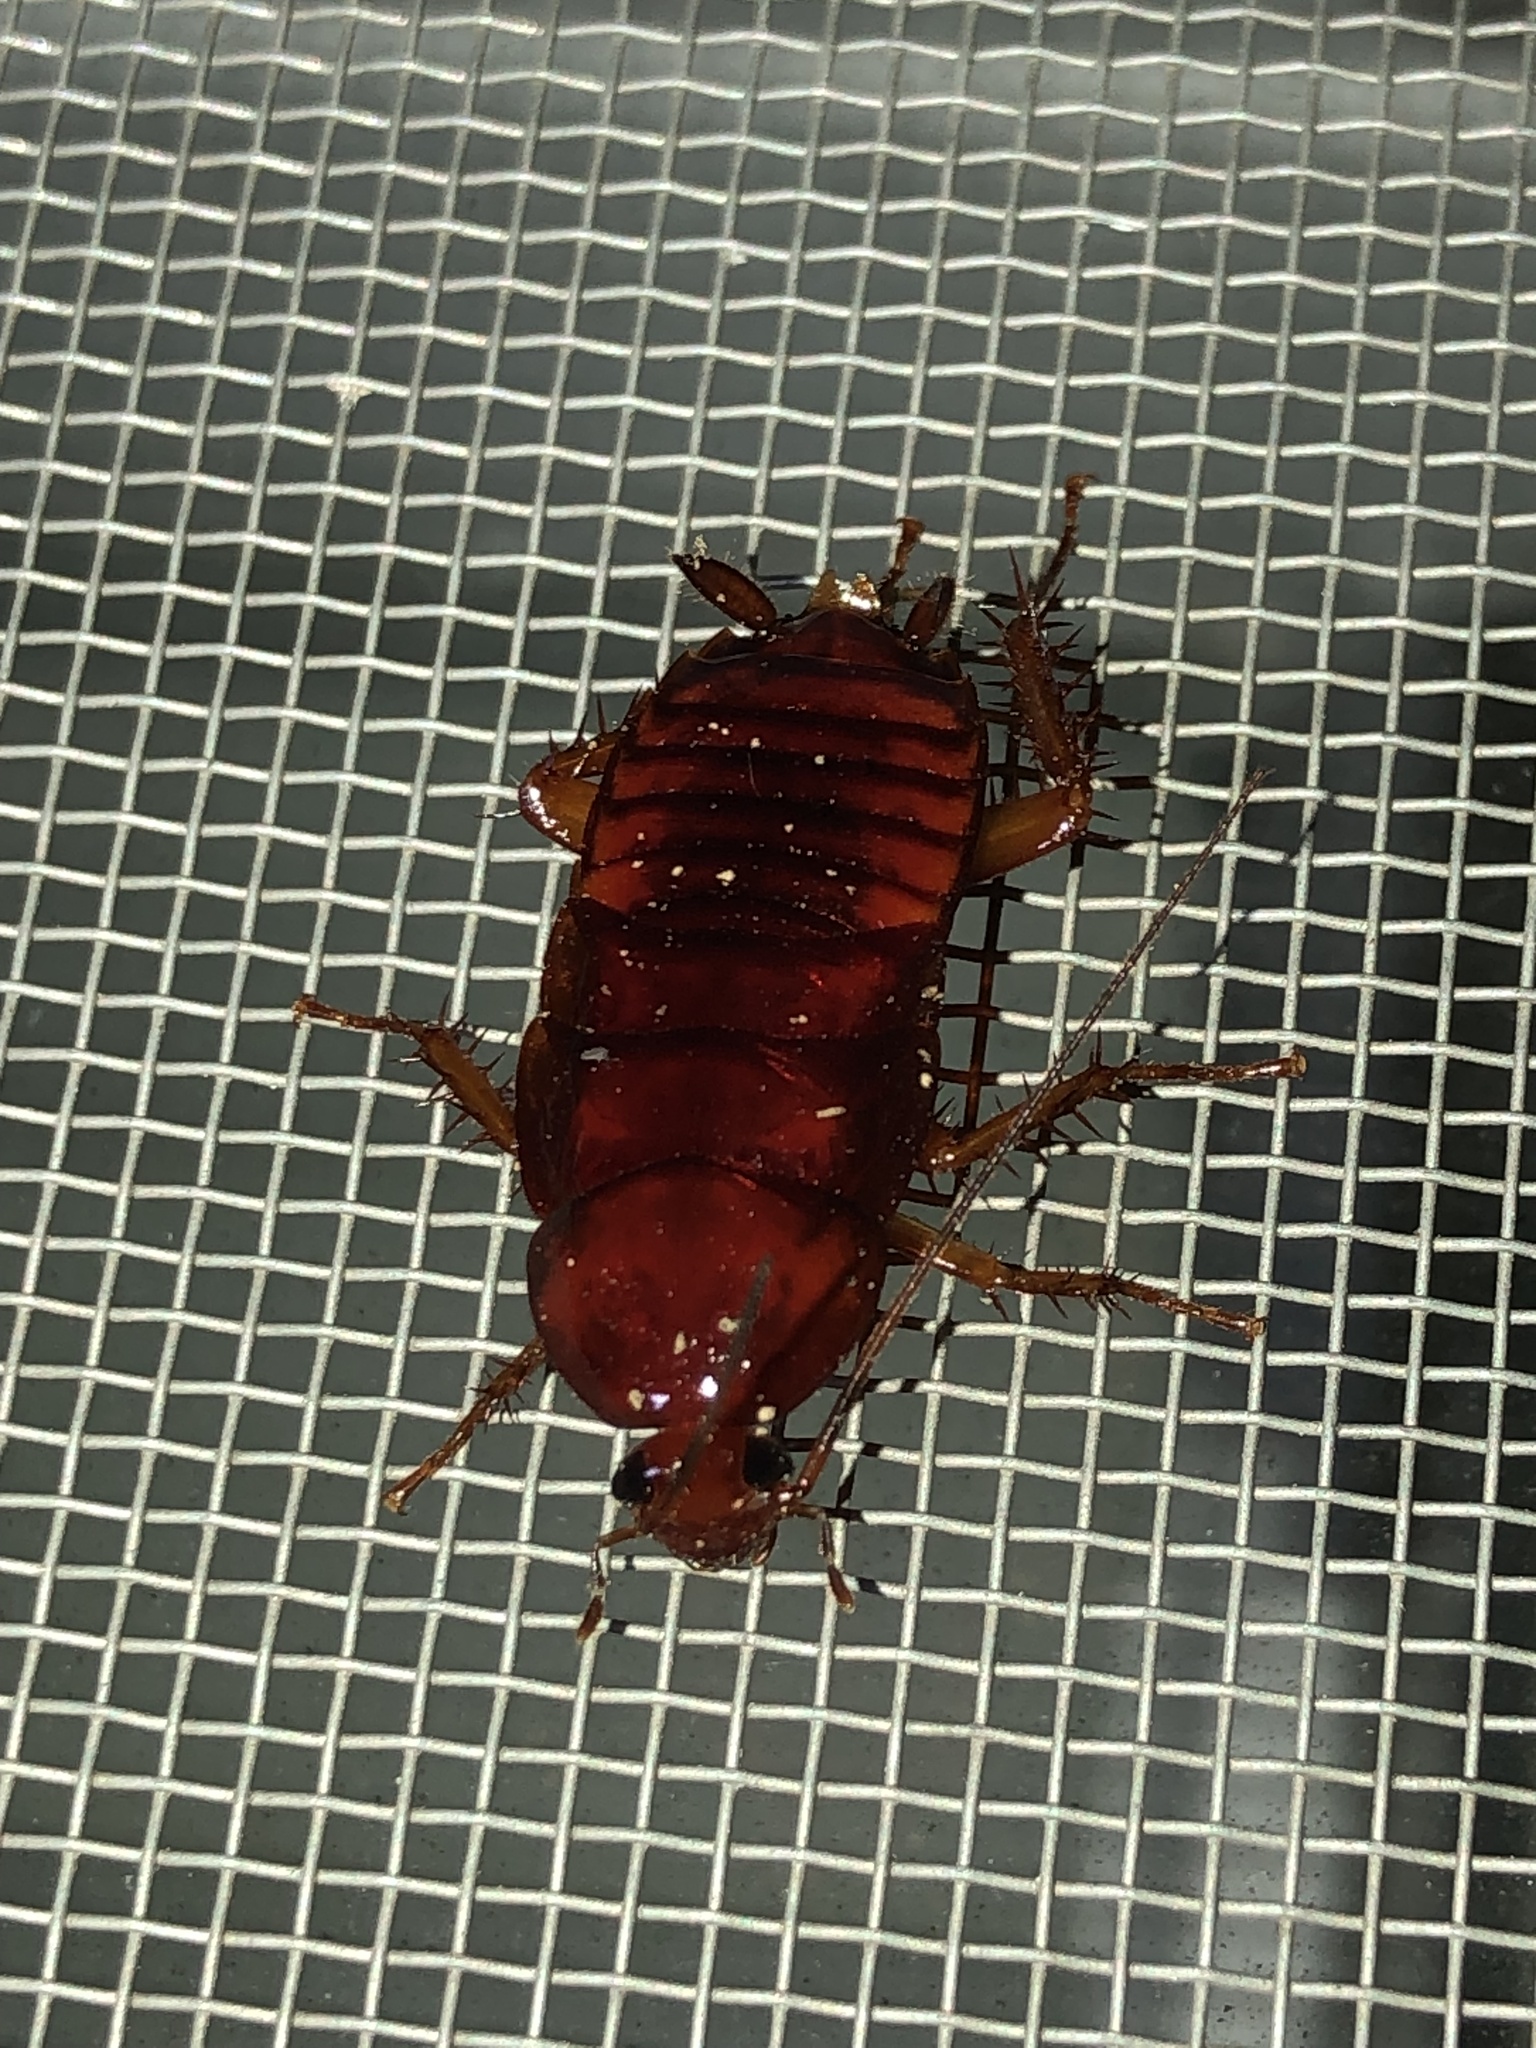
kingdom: Animalia
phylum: Arthropoda
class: Insecta
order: Blattodea
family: Blattidae
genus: Periplaneta
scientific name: Periplaneta fuliginosa
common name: Smokeybrown cockroad
